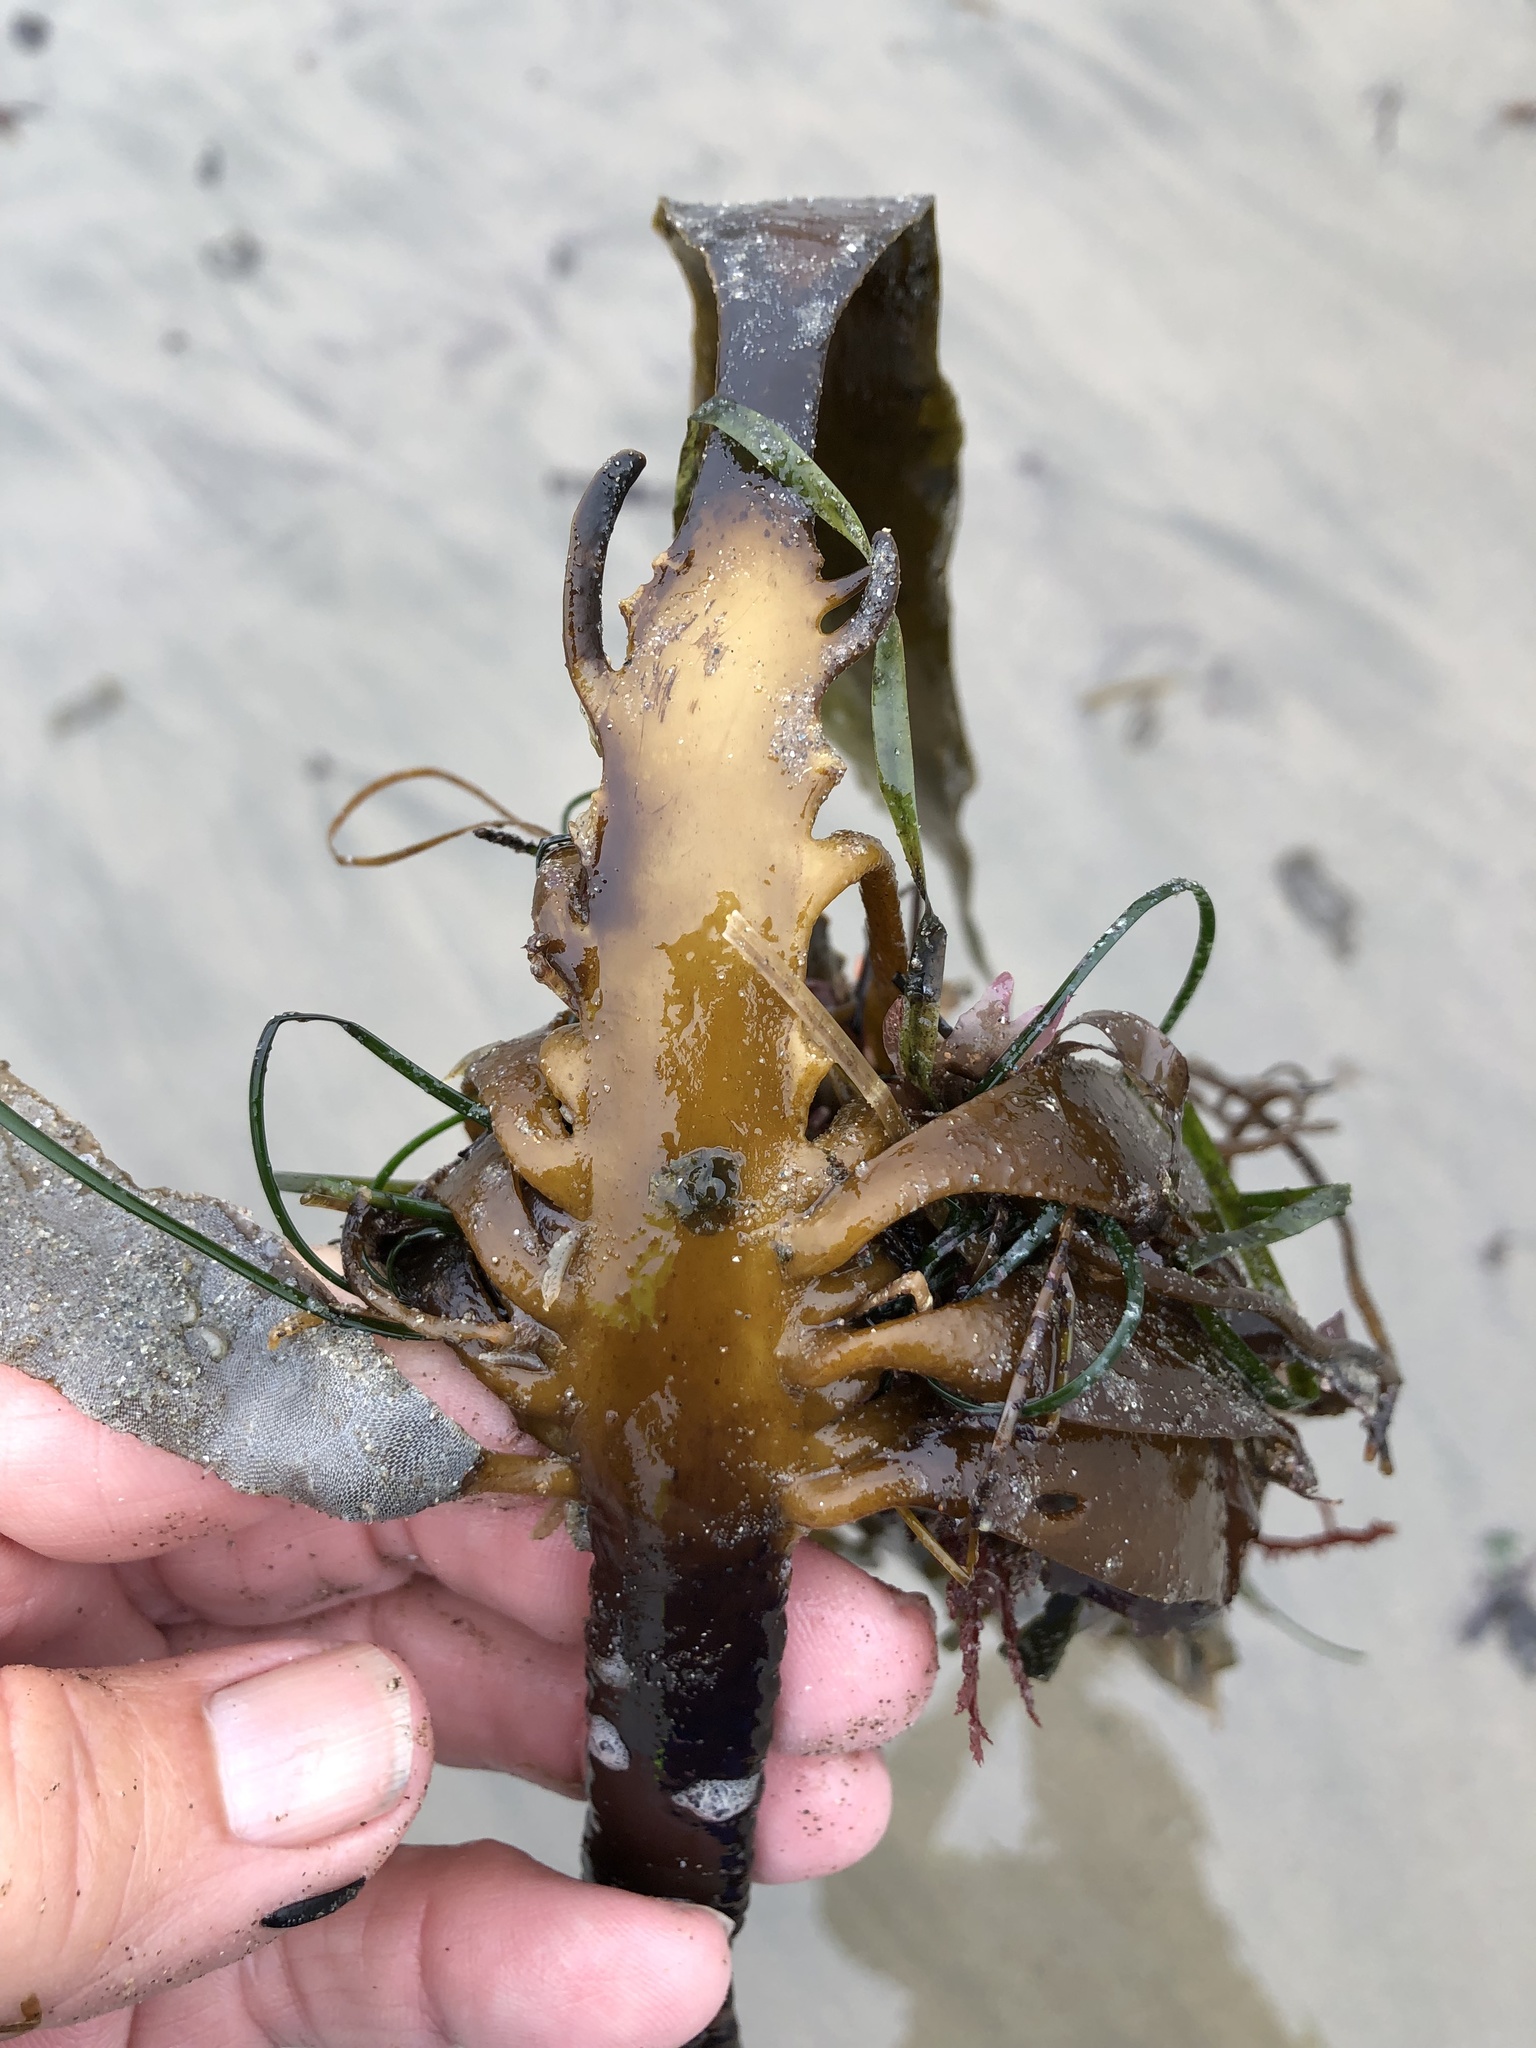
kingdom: Chromista
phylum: Ochrophyta
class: Phaeophyceae
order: Laminariales
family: Alariaceae
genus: Pterygophora
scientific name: Pterygophora californica
